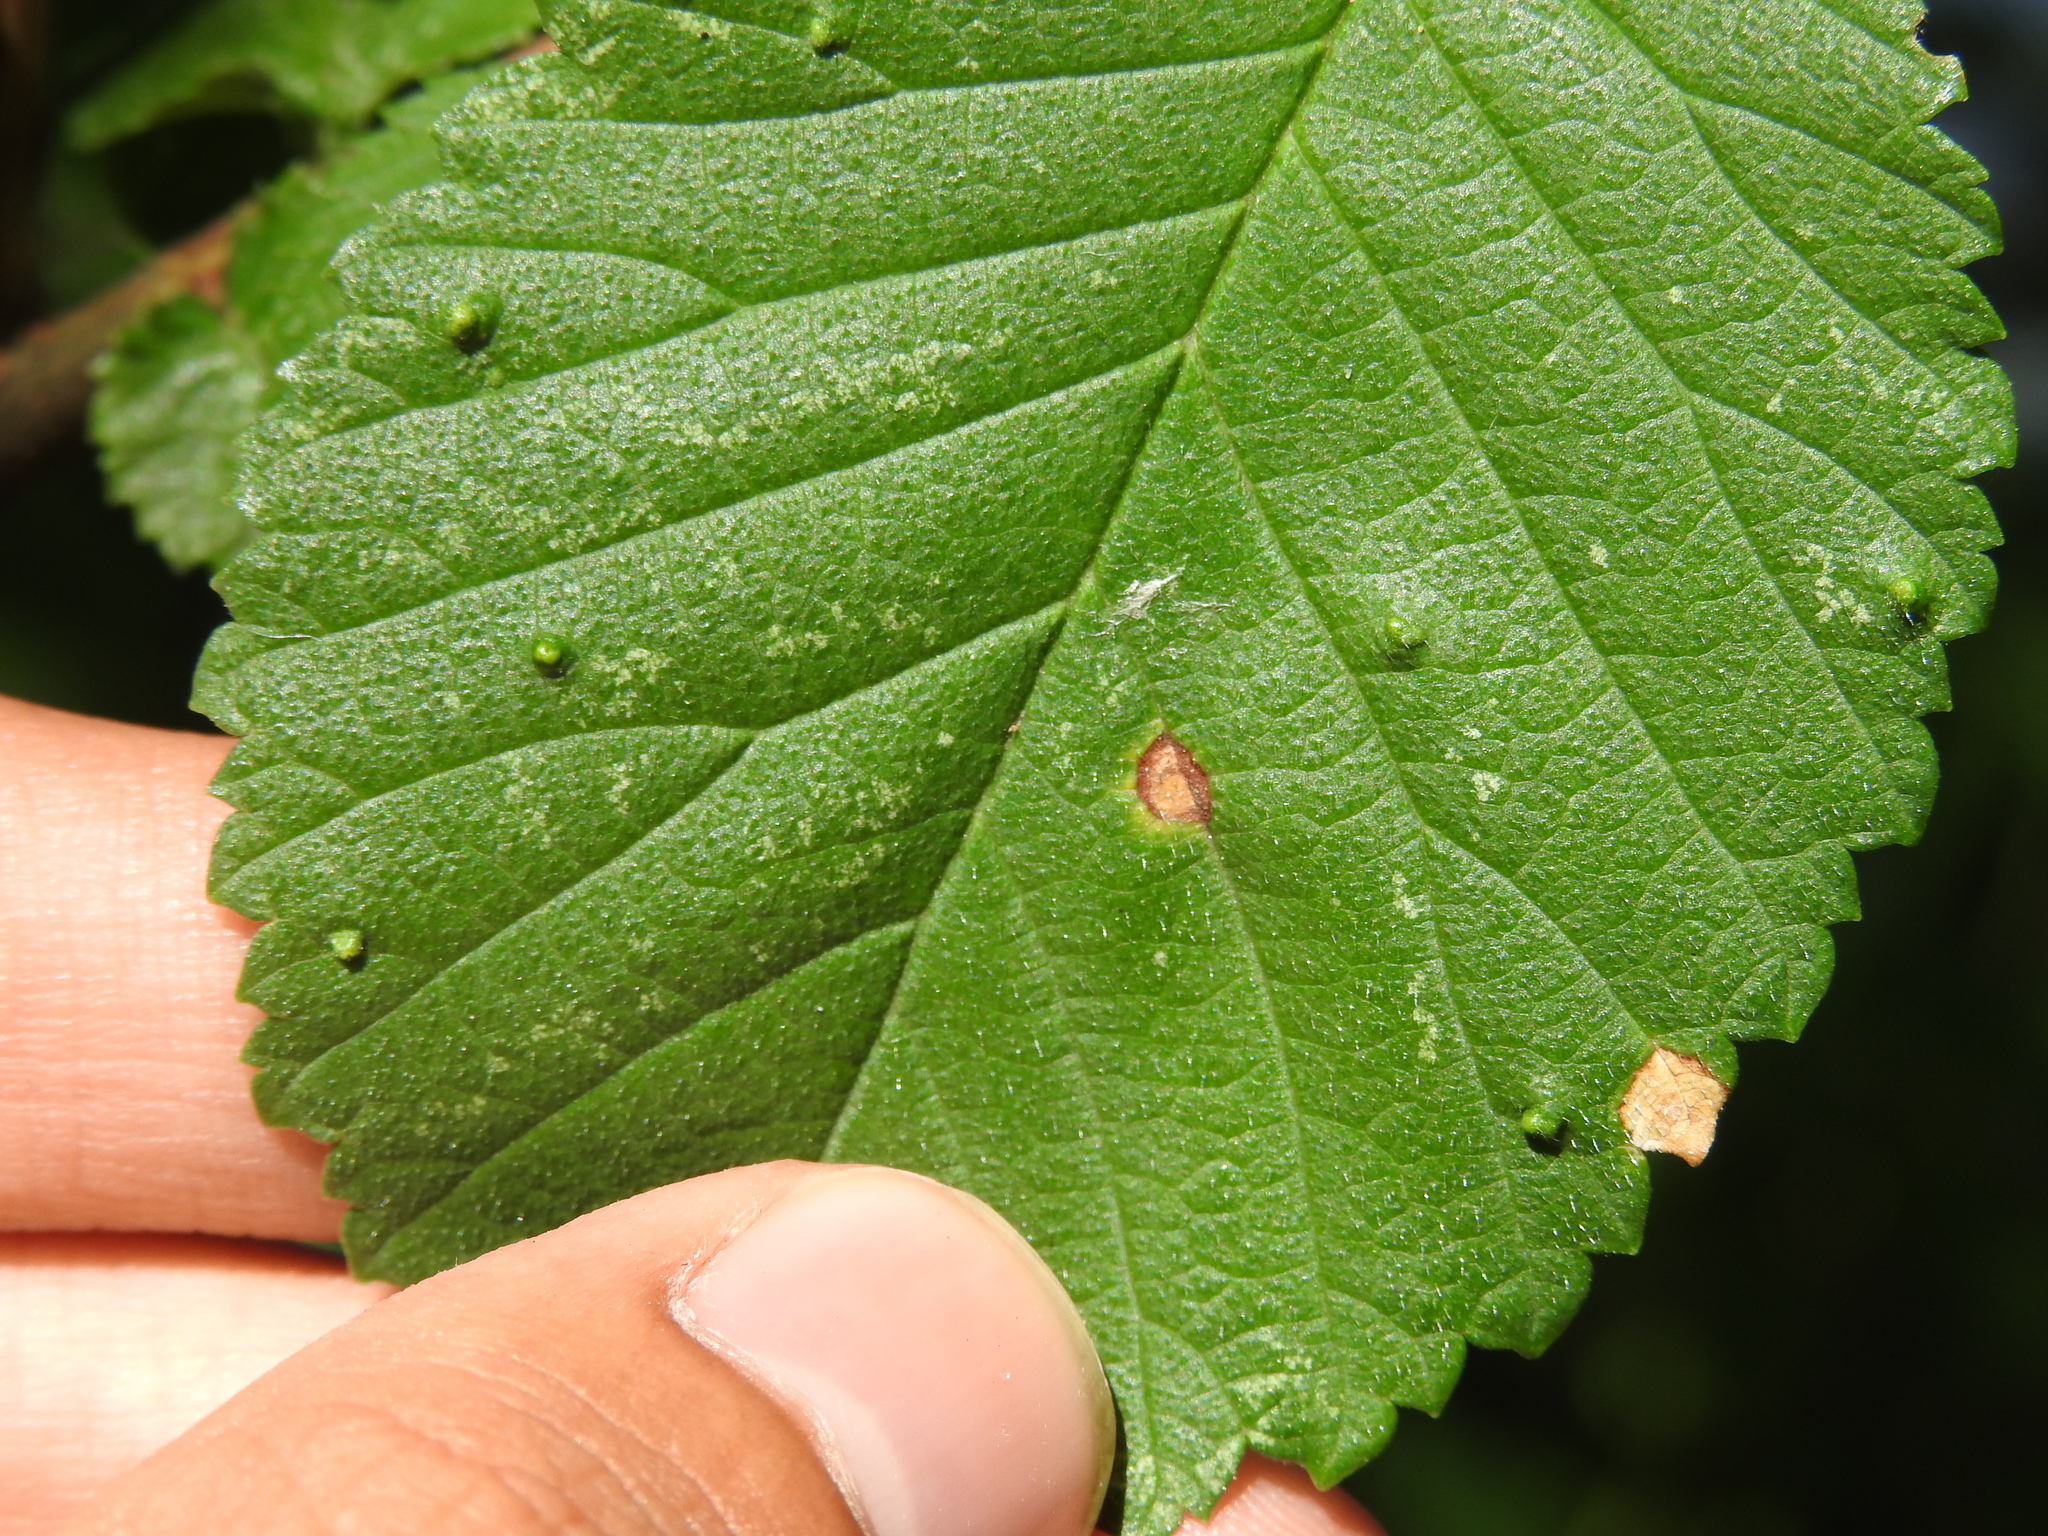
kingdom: Animalia
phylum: Arthropoda
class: Arachnida
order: Trombidiformes
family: Eriophyidae
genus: Aceria
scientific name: Aceria brevipunctata
